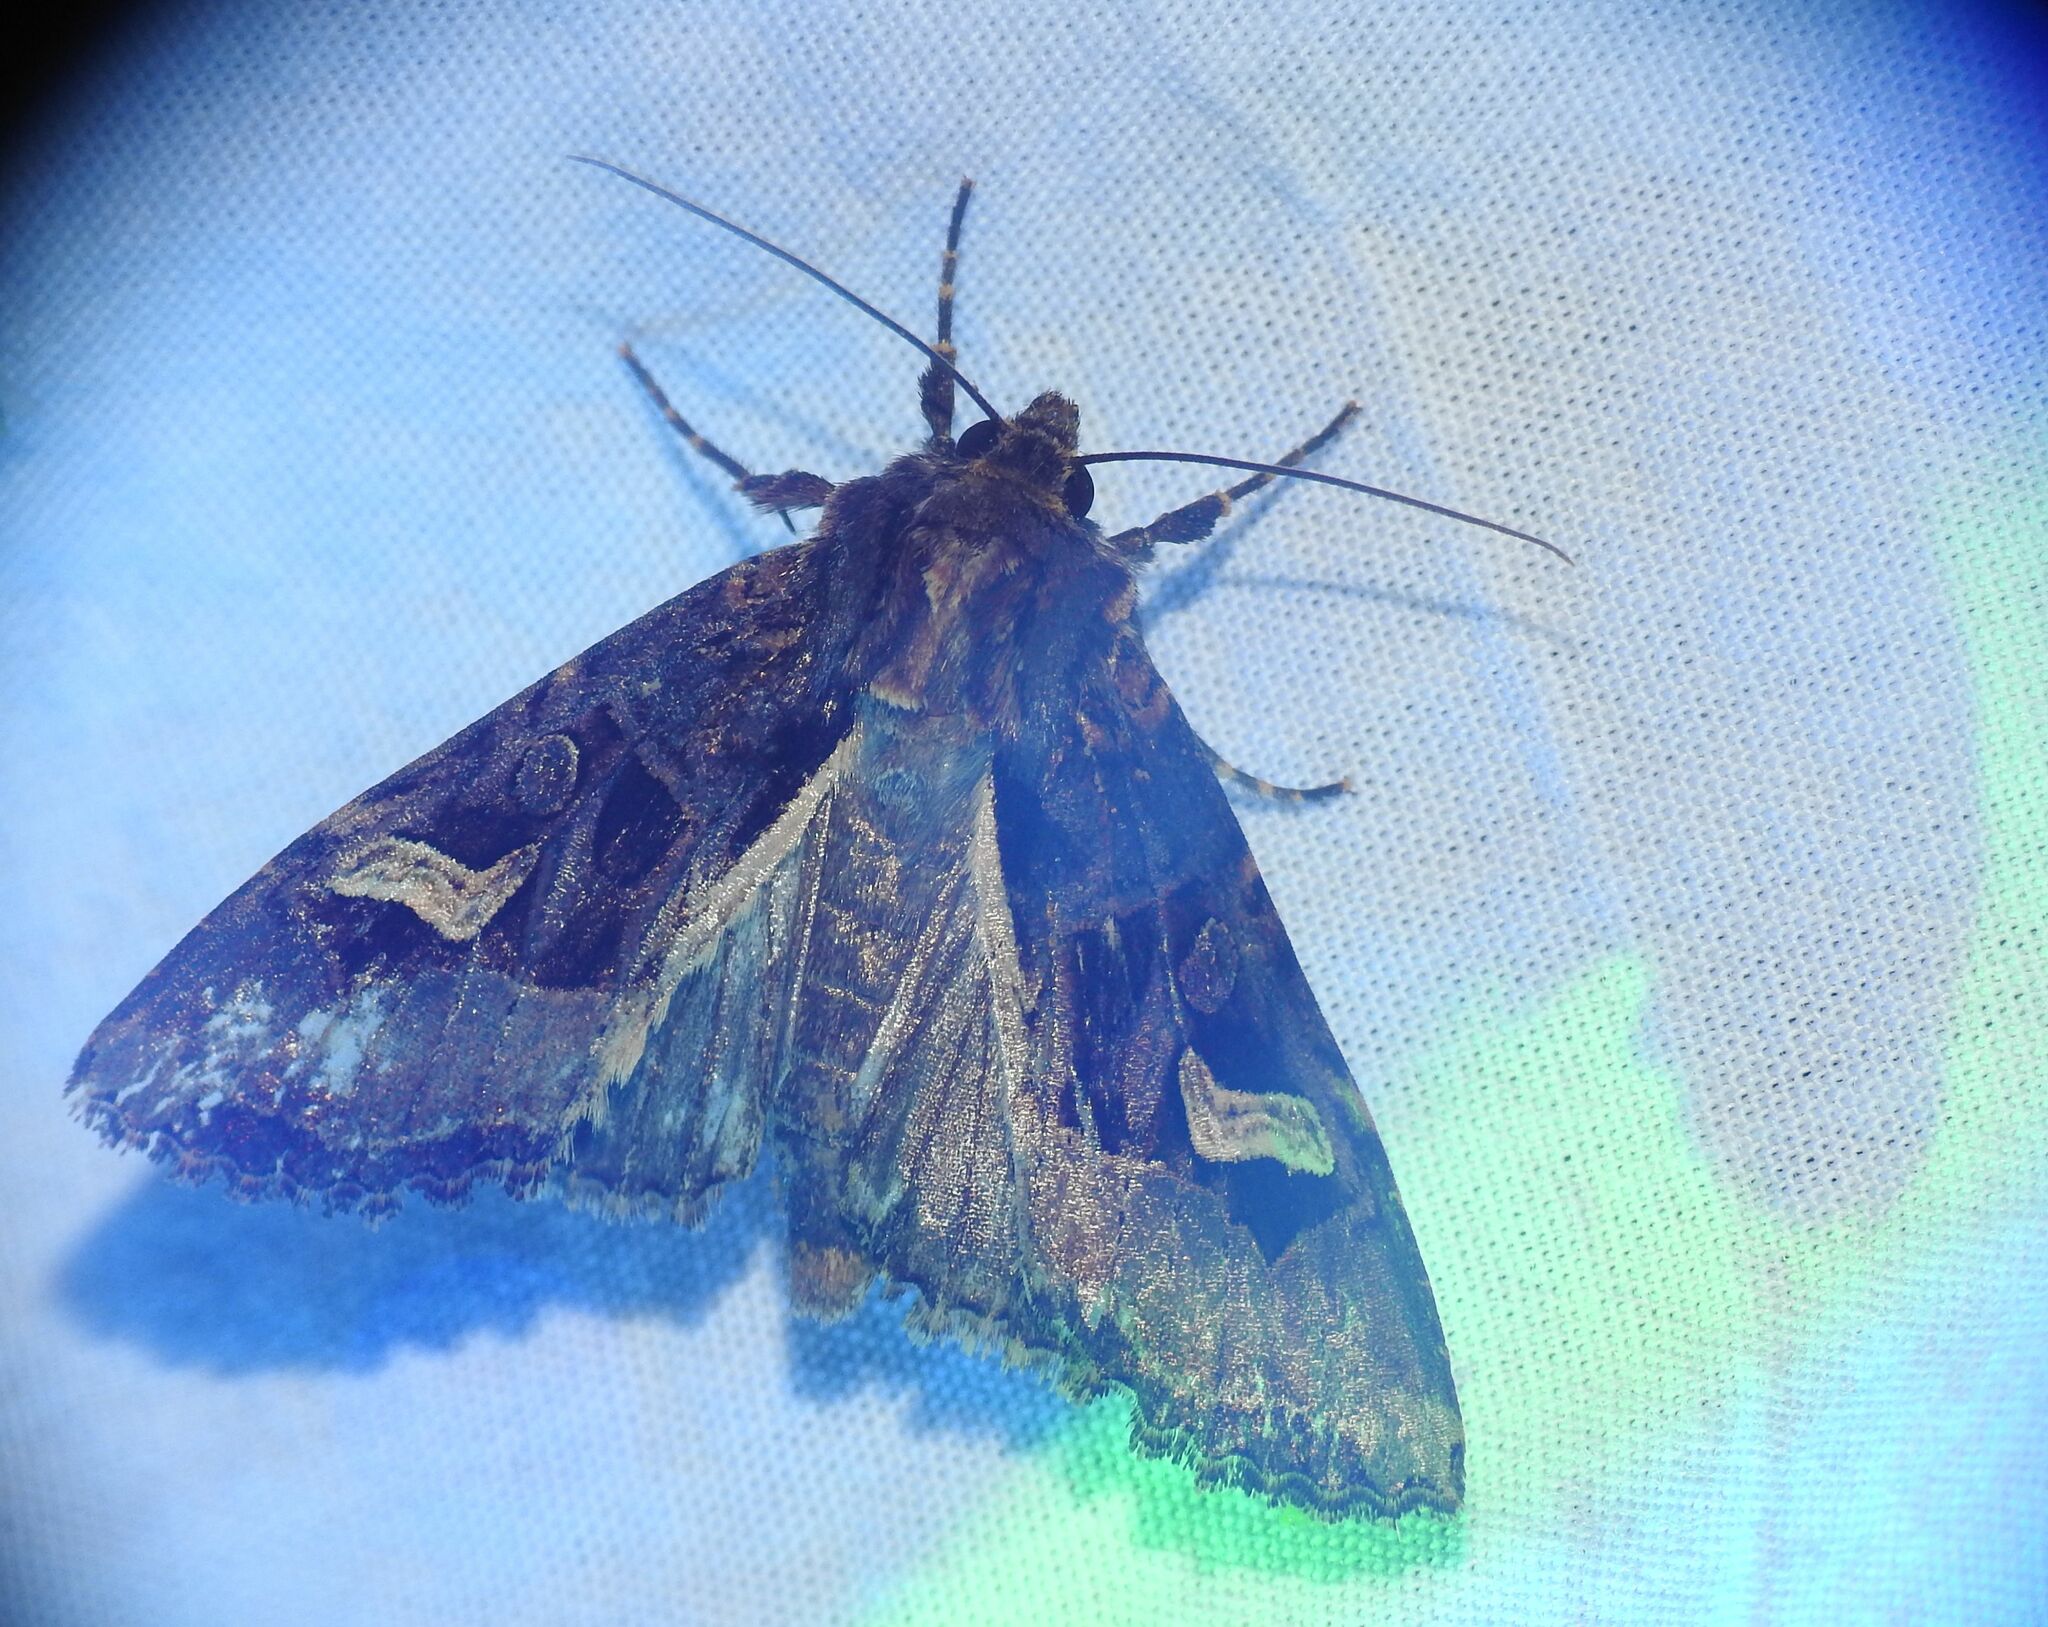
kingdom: Animalia
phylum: Arthropoda
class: Insecta
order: Lepidoptera
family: Noctuidae
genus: Trigonophora
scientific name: Trigonophora flammea
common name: Flame brocade
